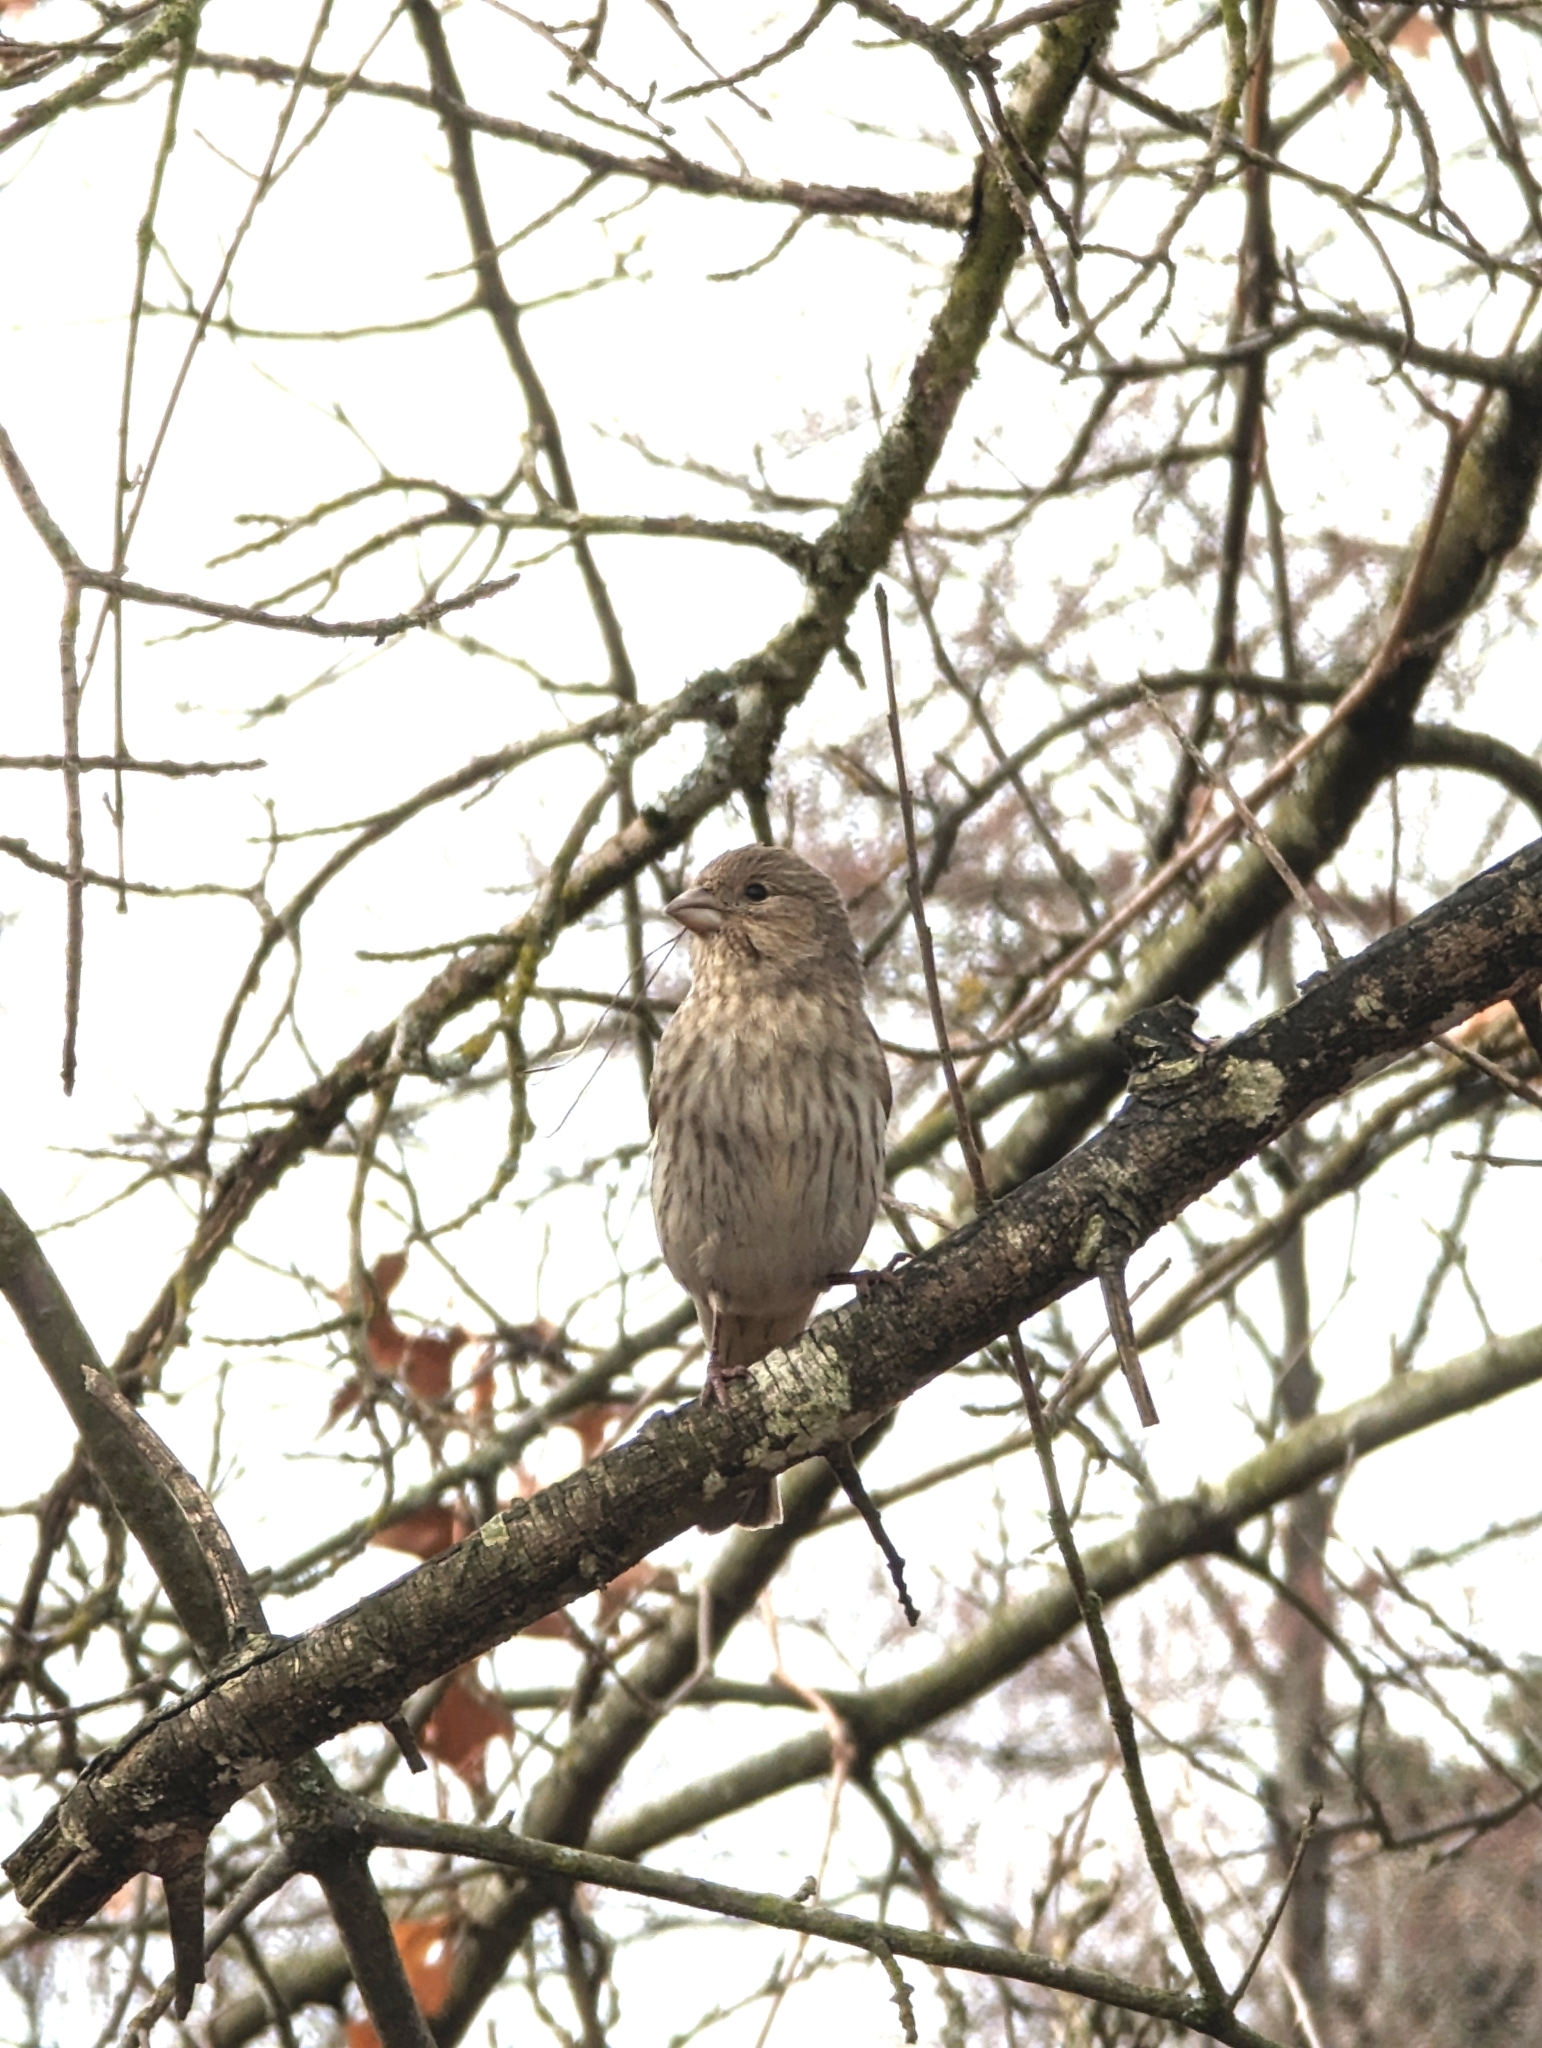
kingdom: Animalia
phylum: Chordata
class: Aves
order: Passeriformes
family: Fringillidae
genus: Haemorhous
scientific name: Haemorhous mexicanus
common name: House finch
